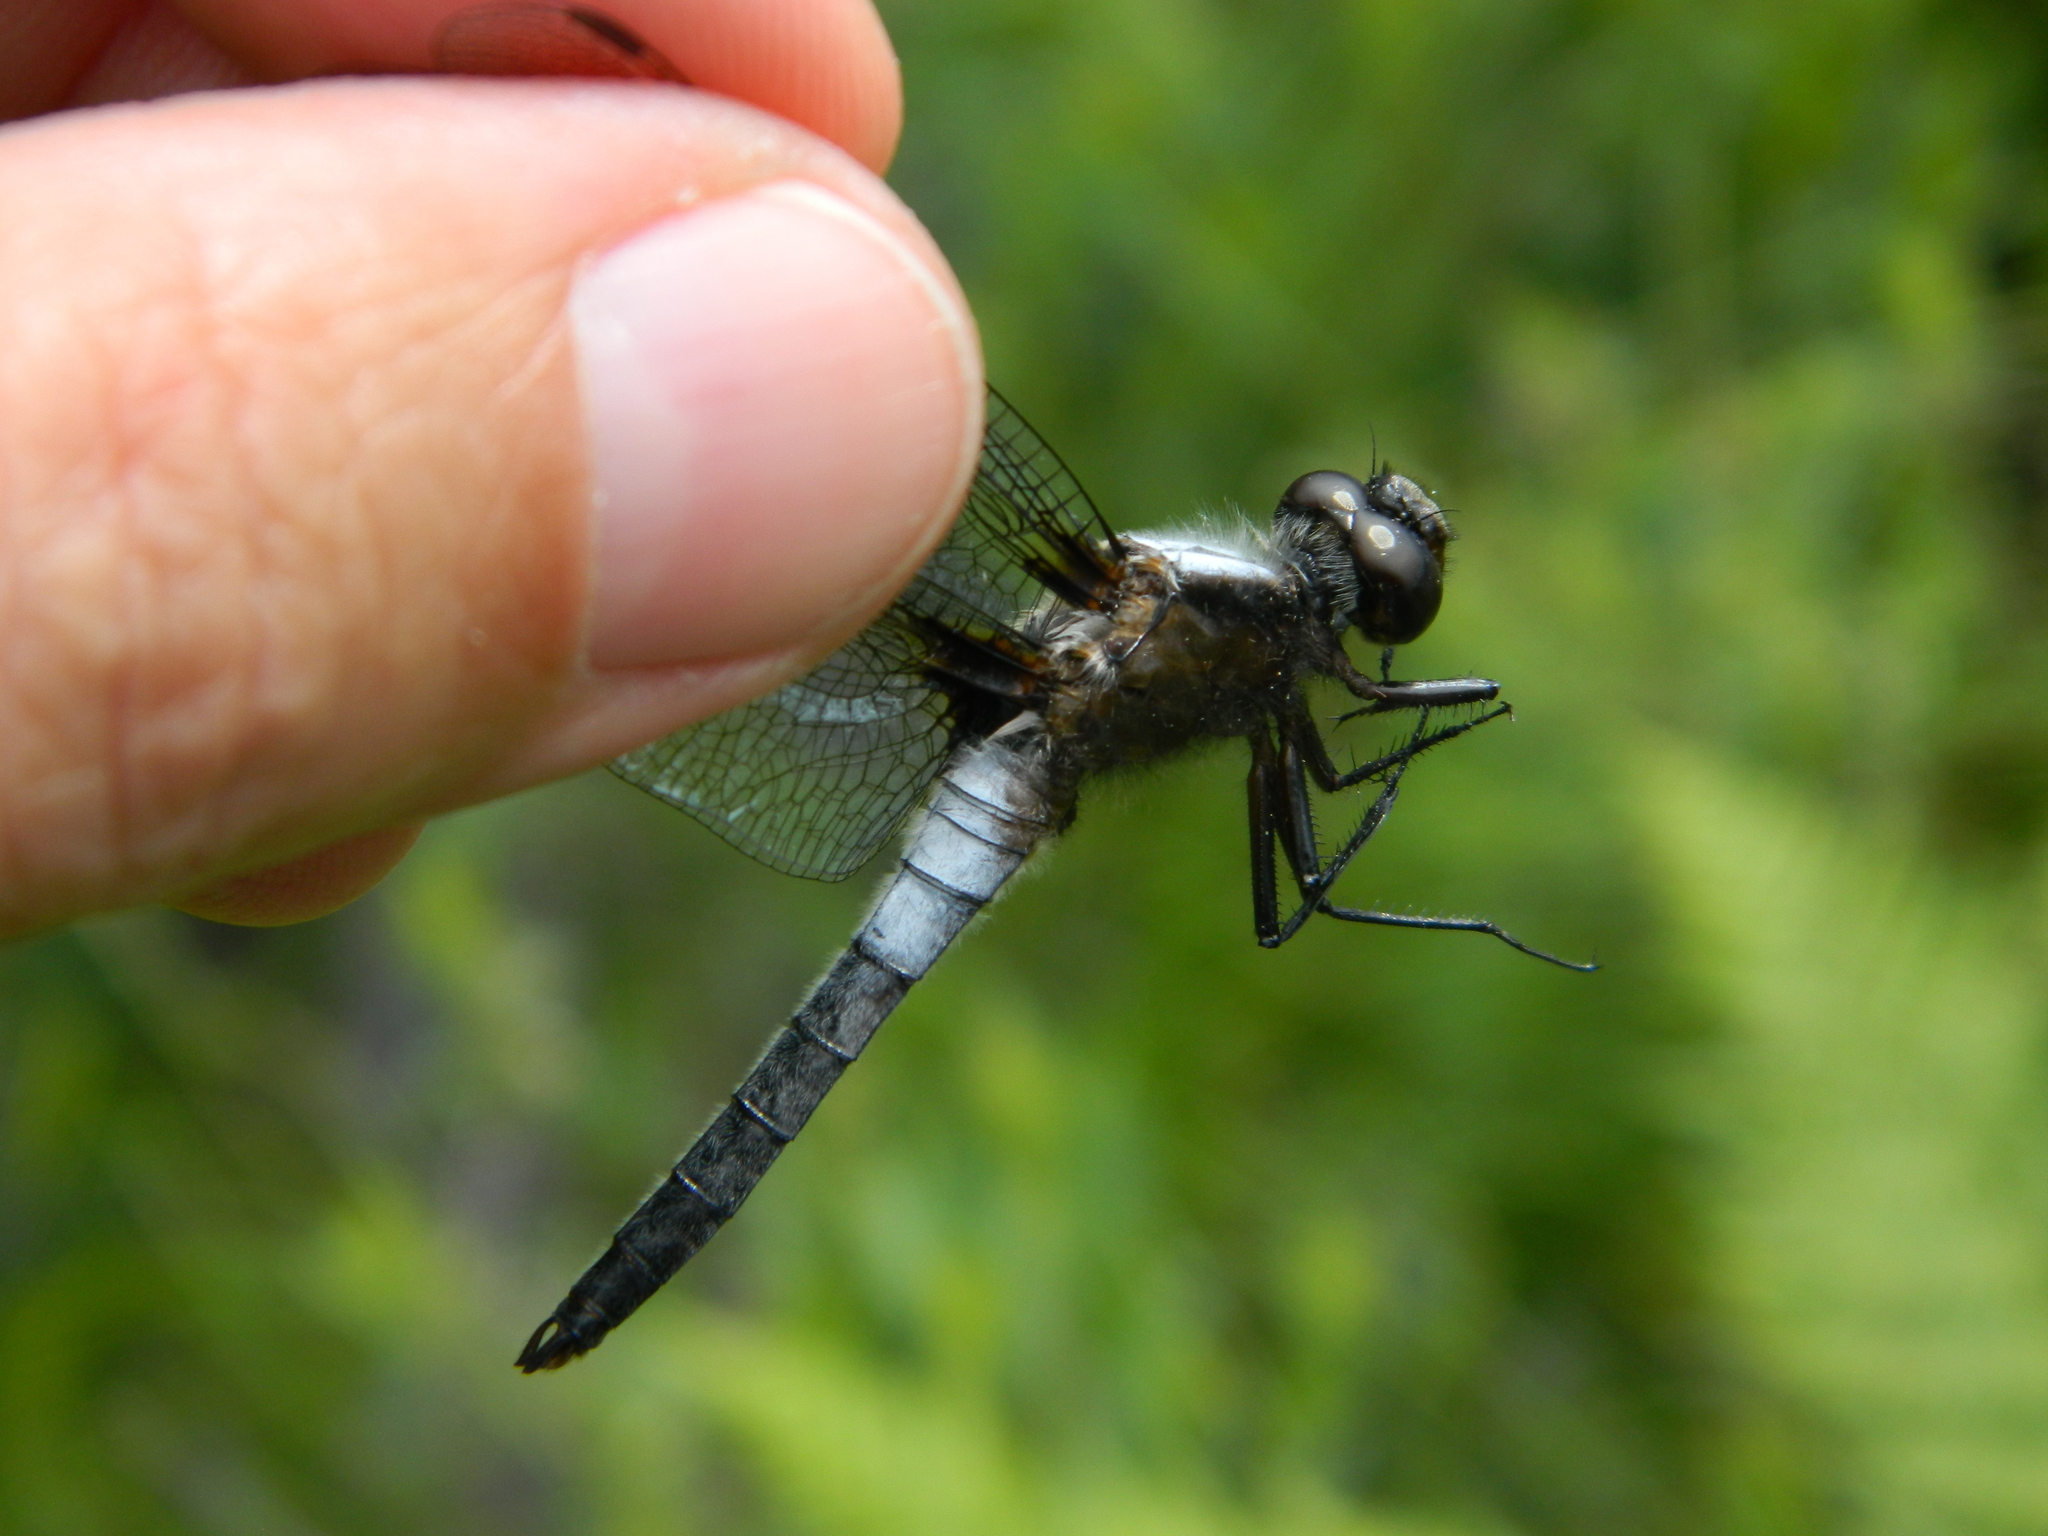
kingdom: Animalia
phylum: Arthropoda
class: Insecta
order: Odonata
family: Libellulidae
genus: Ladona
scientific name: Ladona julia
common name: Chalk-fronted corporal
